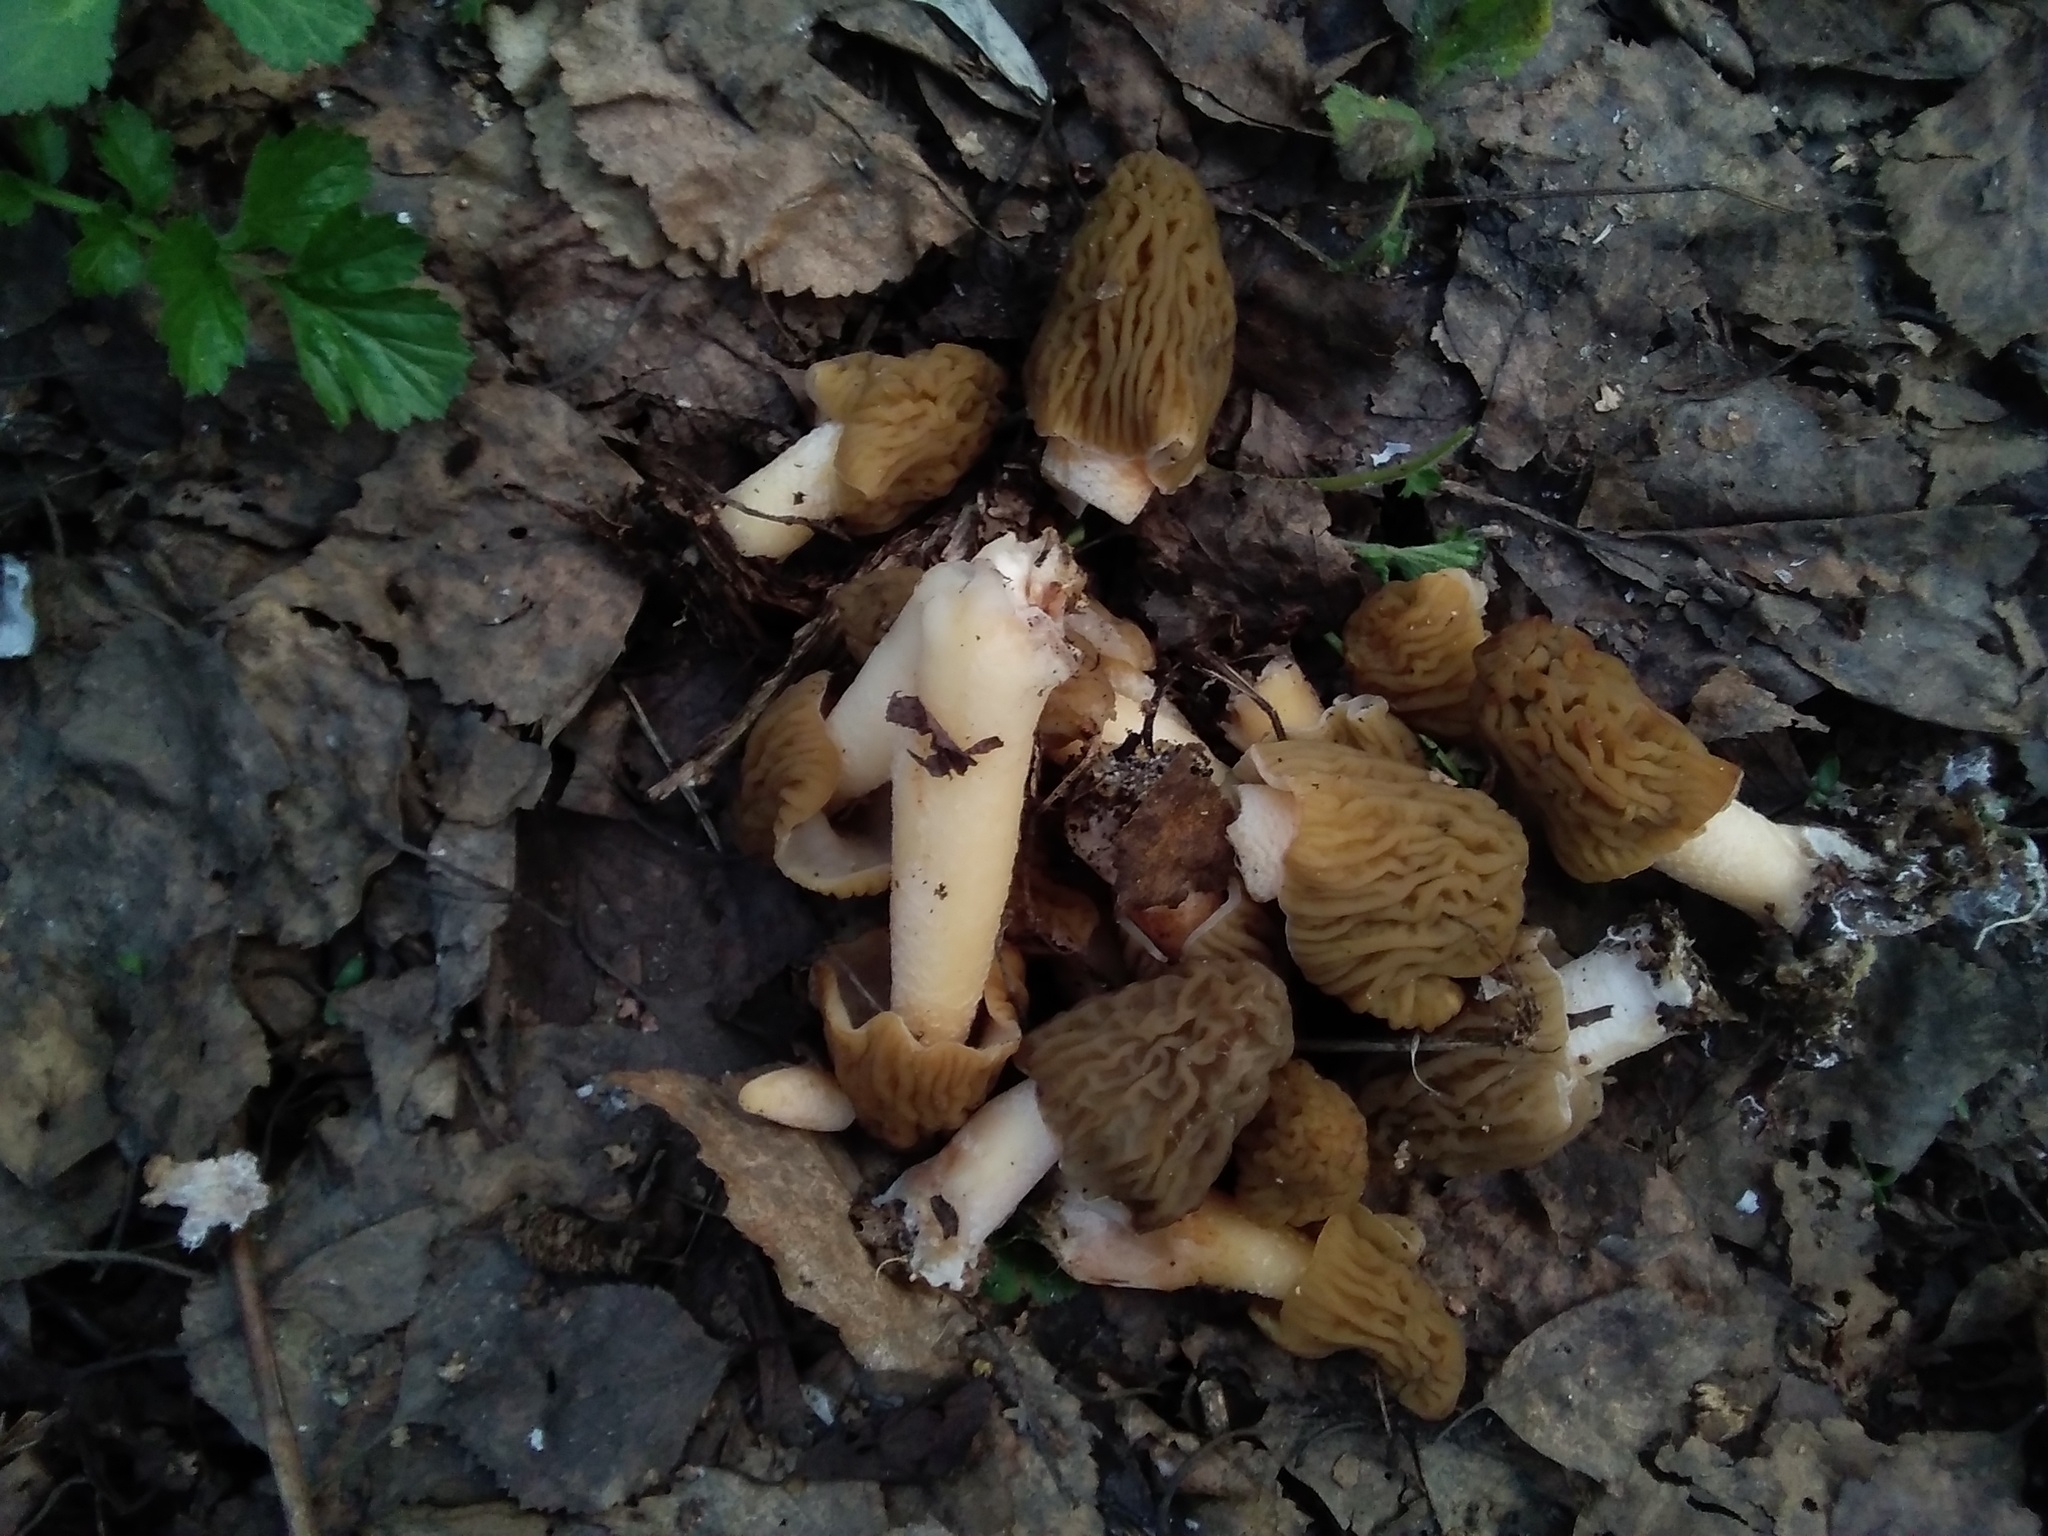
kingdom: Fungi
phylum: Ascomycota
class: Pezizomycetes
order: Pezizales
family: Morchellaceae
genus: Verpa
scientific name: Verpa bohemica
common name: Wrinkled thimble morel
